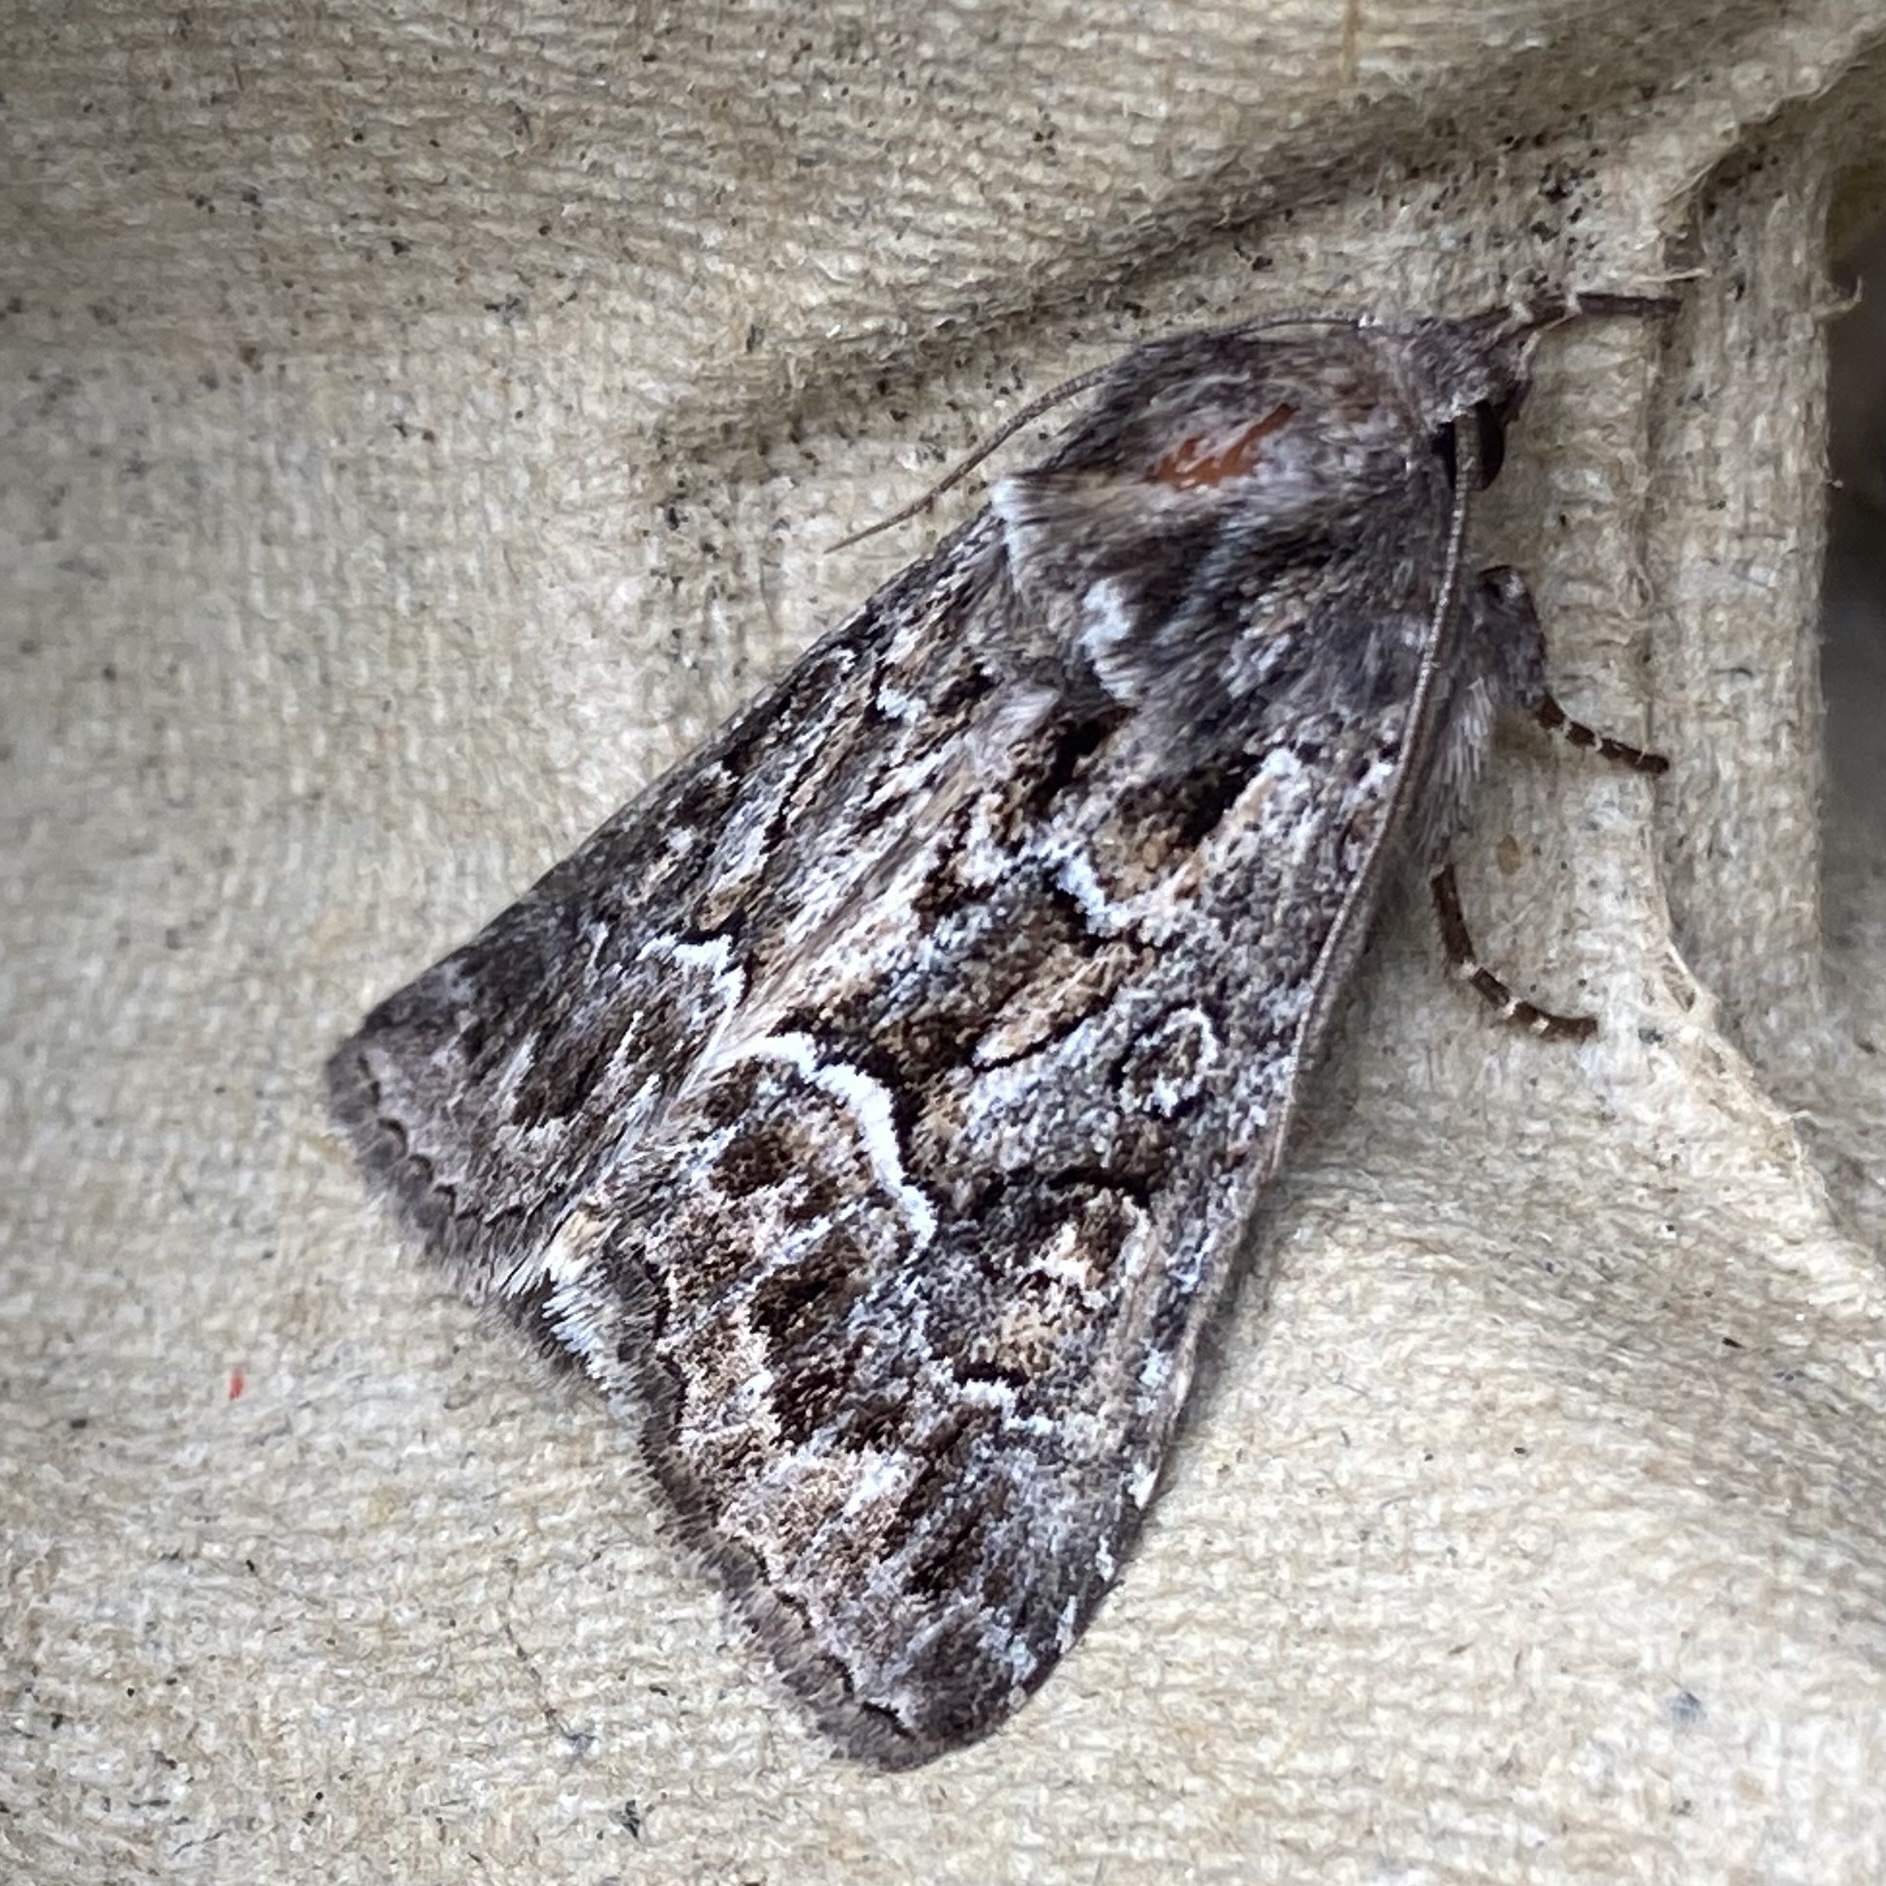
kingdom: Animalia
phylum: Arthropoda
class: Insecta
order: Lepidoptera
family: Noctuidae
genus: Thalpophila
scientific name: Thalpophila matura
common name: Straw underwing
